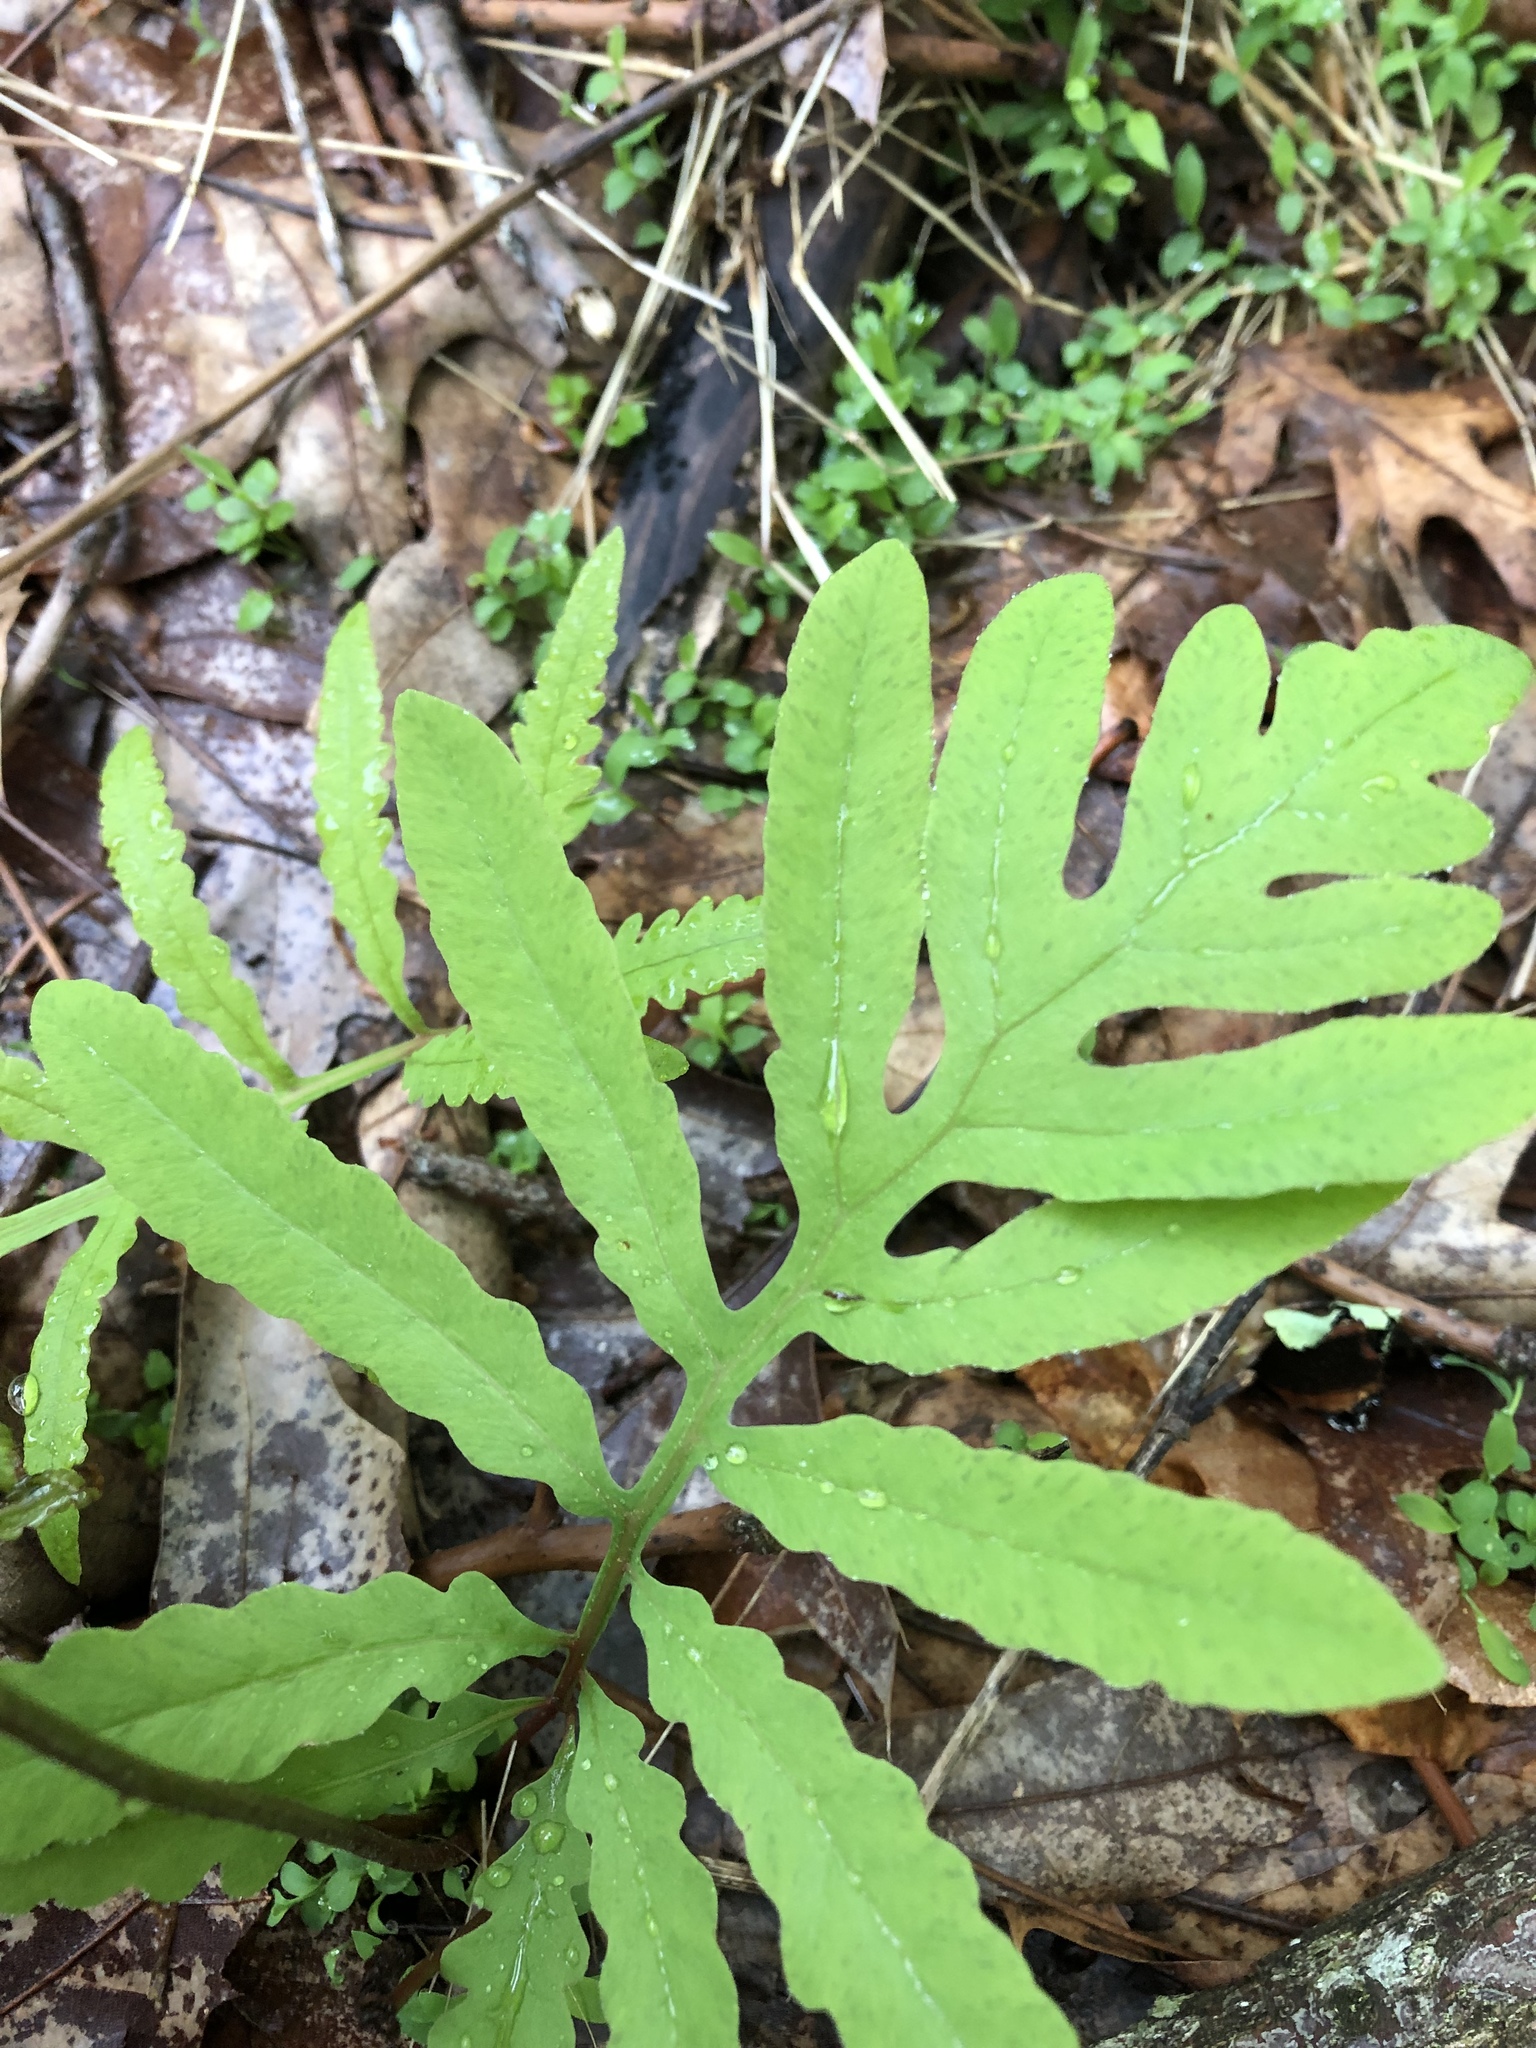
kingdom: Plantae
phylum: Tracheophyta
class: Polypodiopsida
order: Polypodiales
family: Onocleaceae
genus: Onoclea
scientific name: Onoclea sensibilis
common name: Sensitive fern
